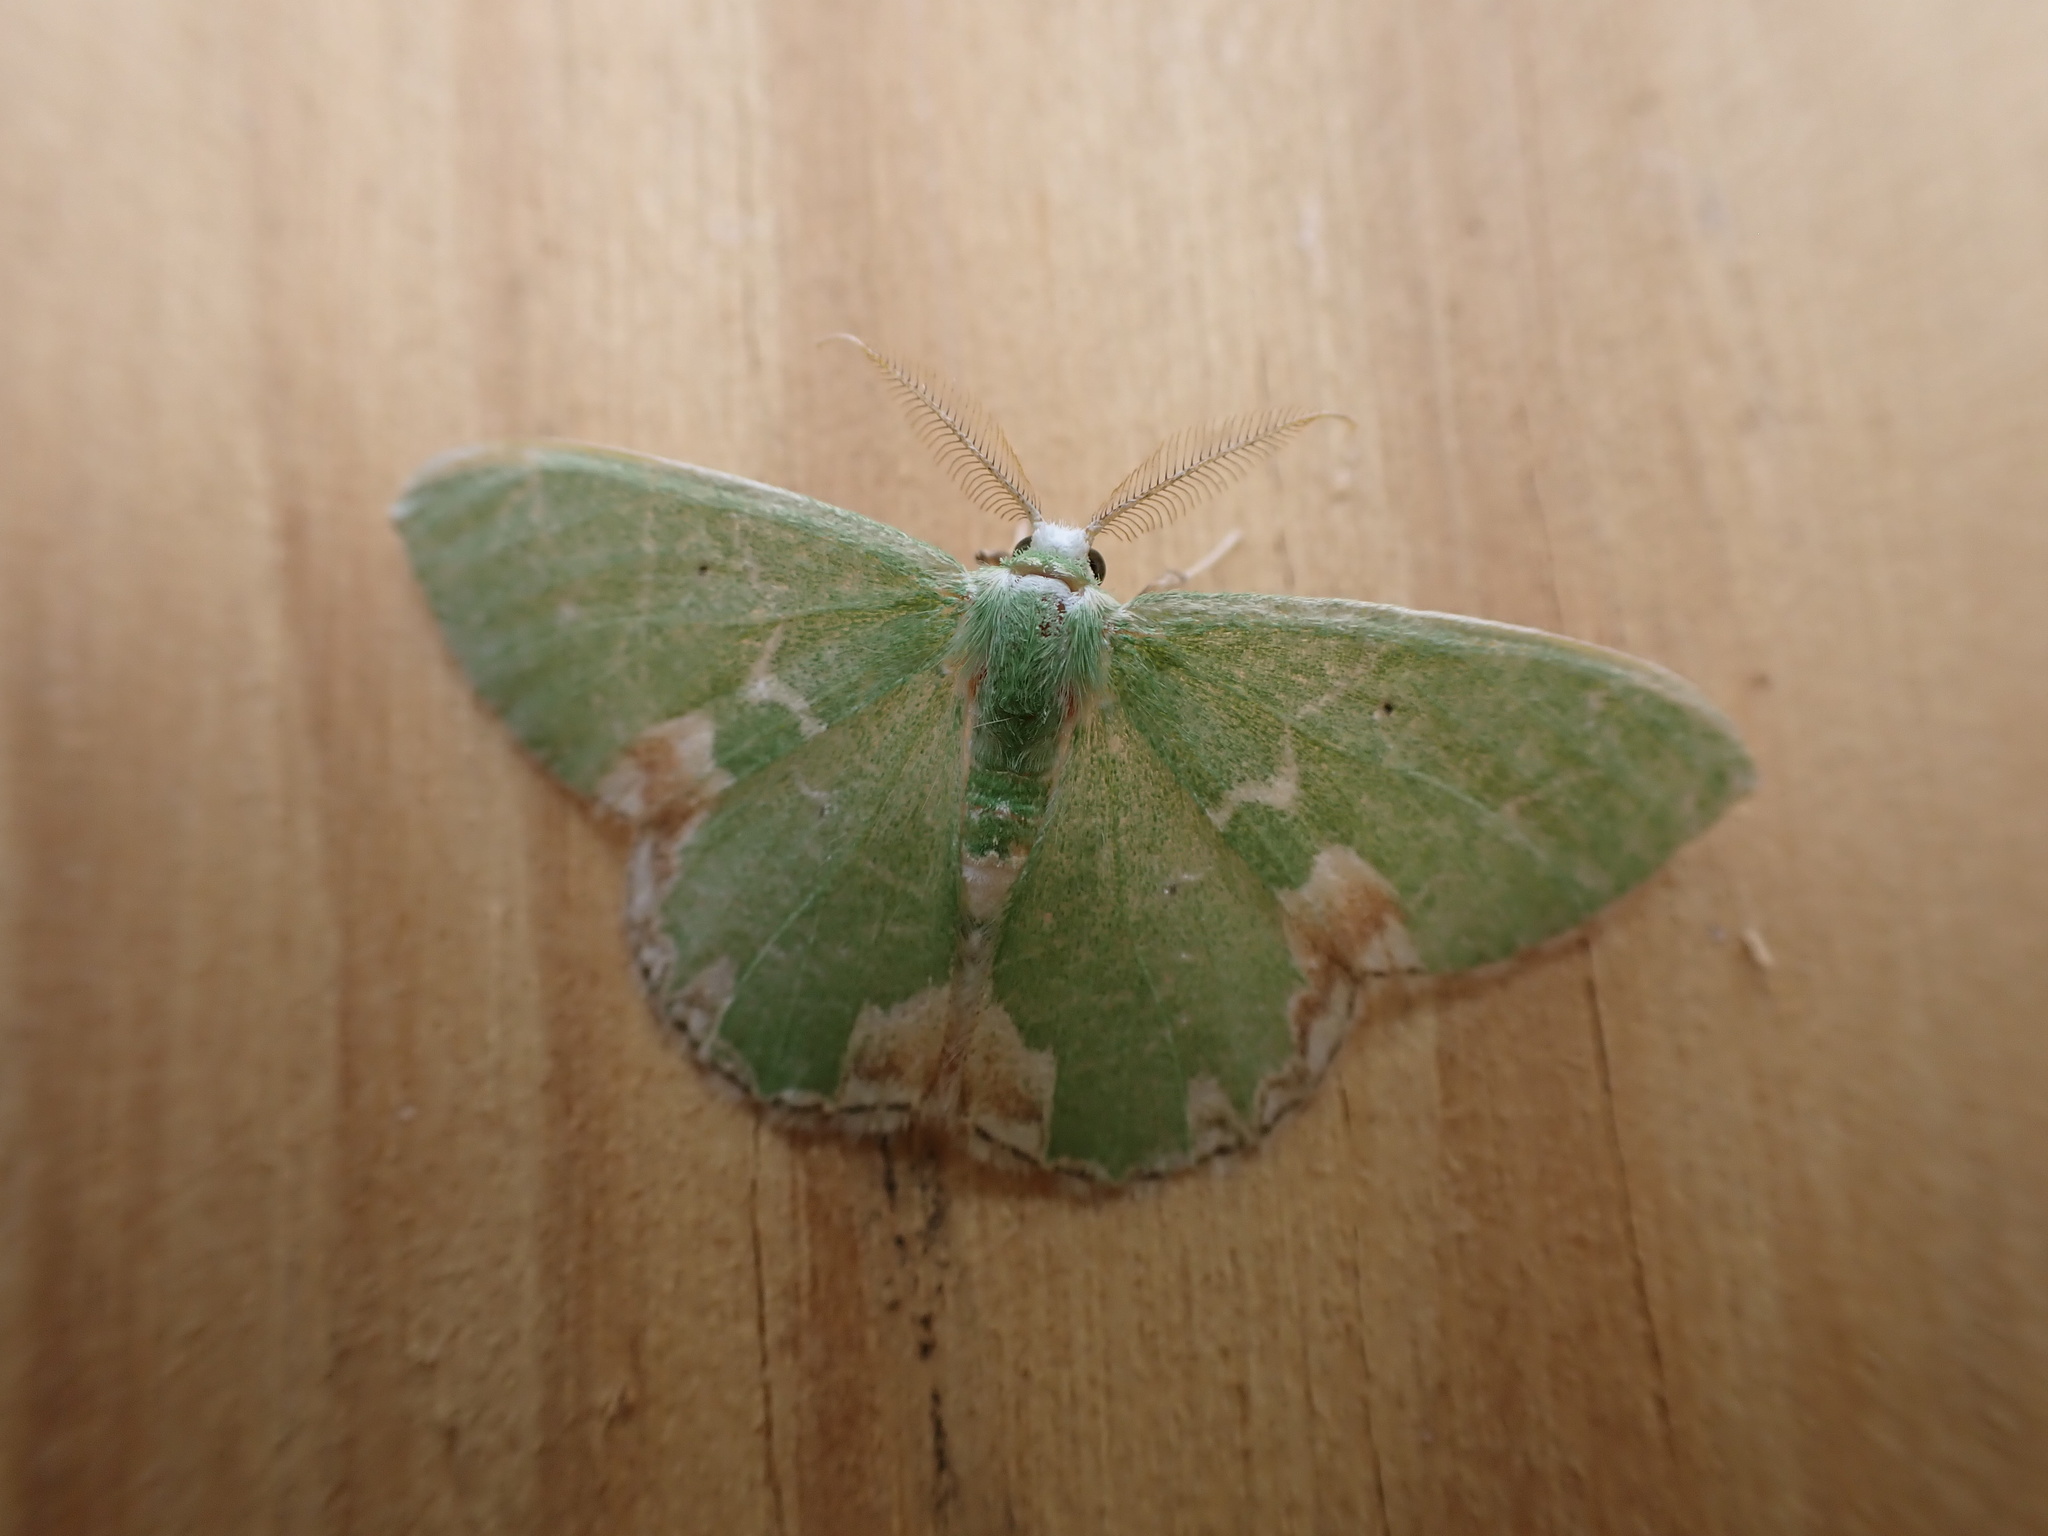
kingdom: Animalia
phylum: Arthropoda
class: Insecta
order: Lepidoptera
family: Geometridae
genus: Comibaena
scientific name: Comibaena bajularia
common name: Blotched emerald
